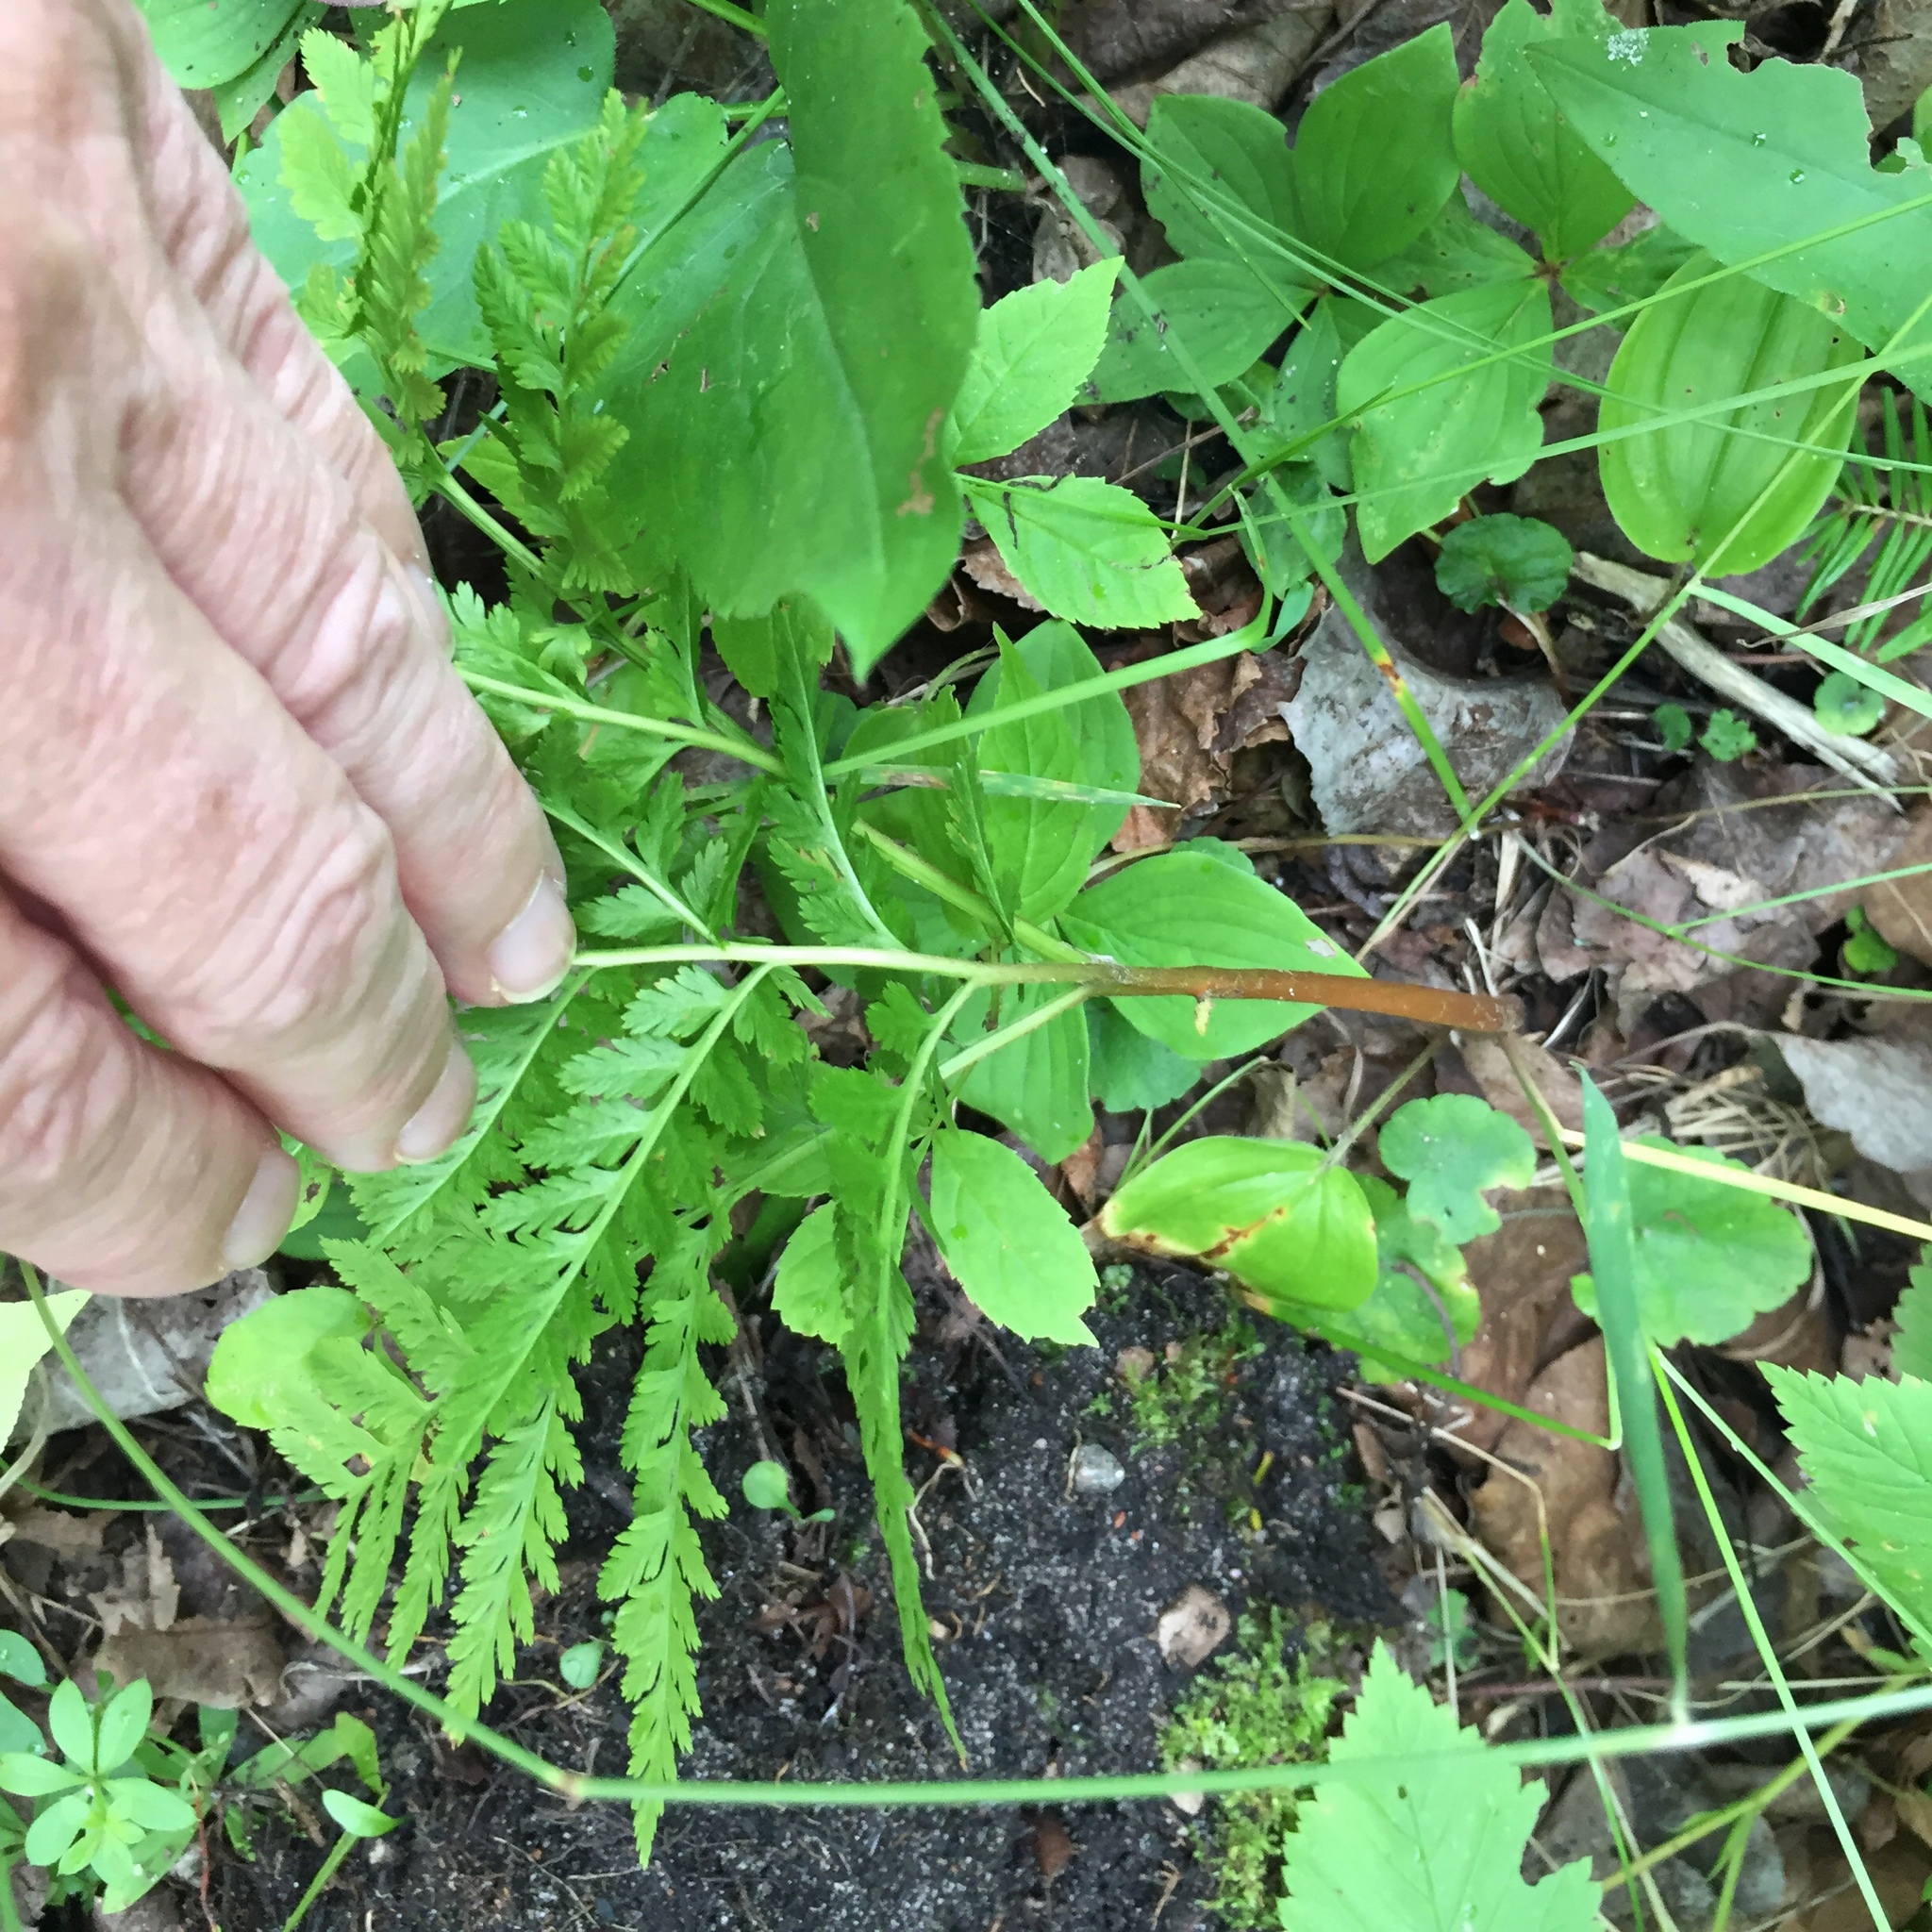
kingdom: Plantae
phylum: Tracheophyta
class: Polypodiopsida
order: Ophioglossales
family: Ophioglossaceae
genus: Botrypus
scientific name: Botrypus virginianus
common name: Common grapefern
